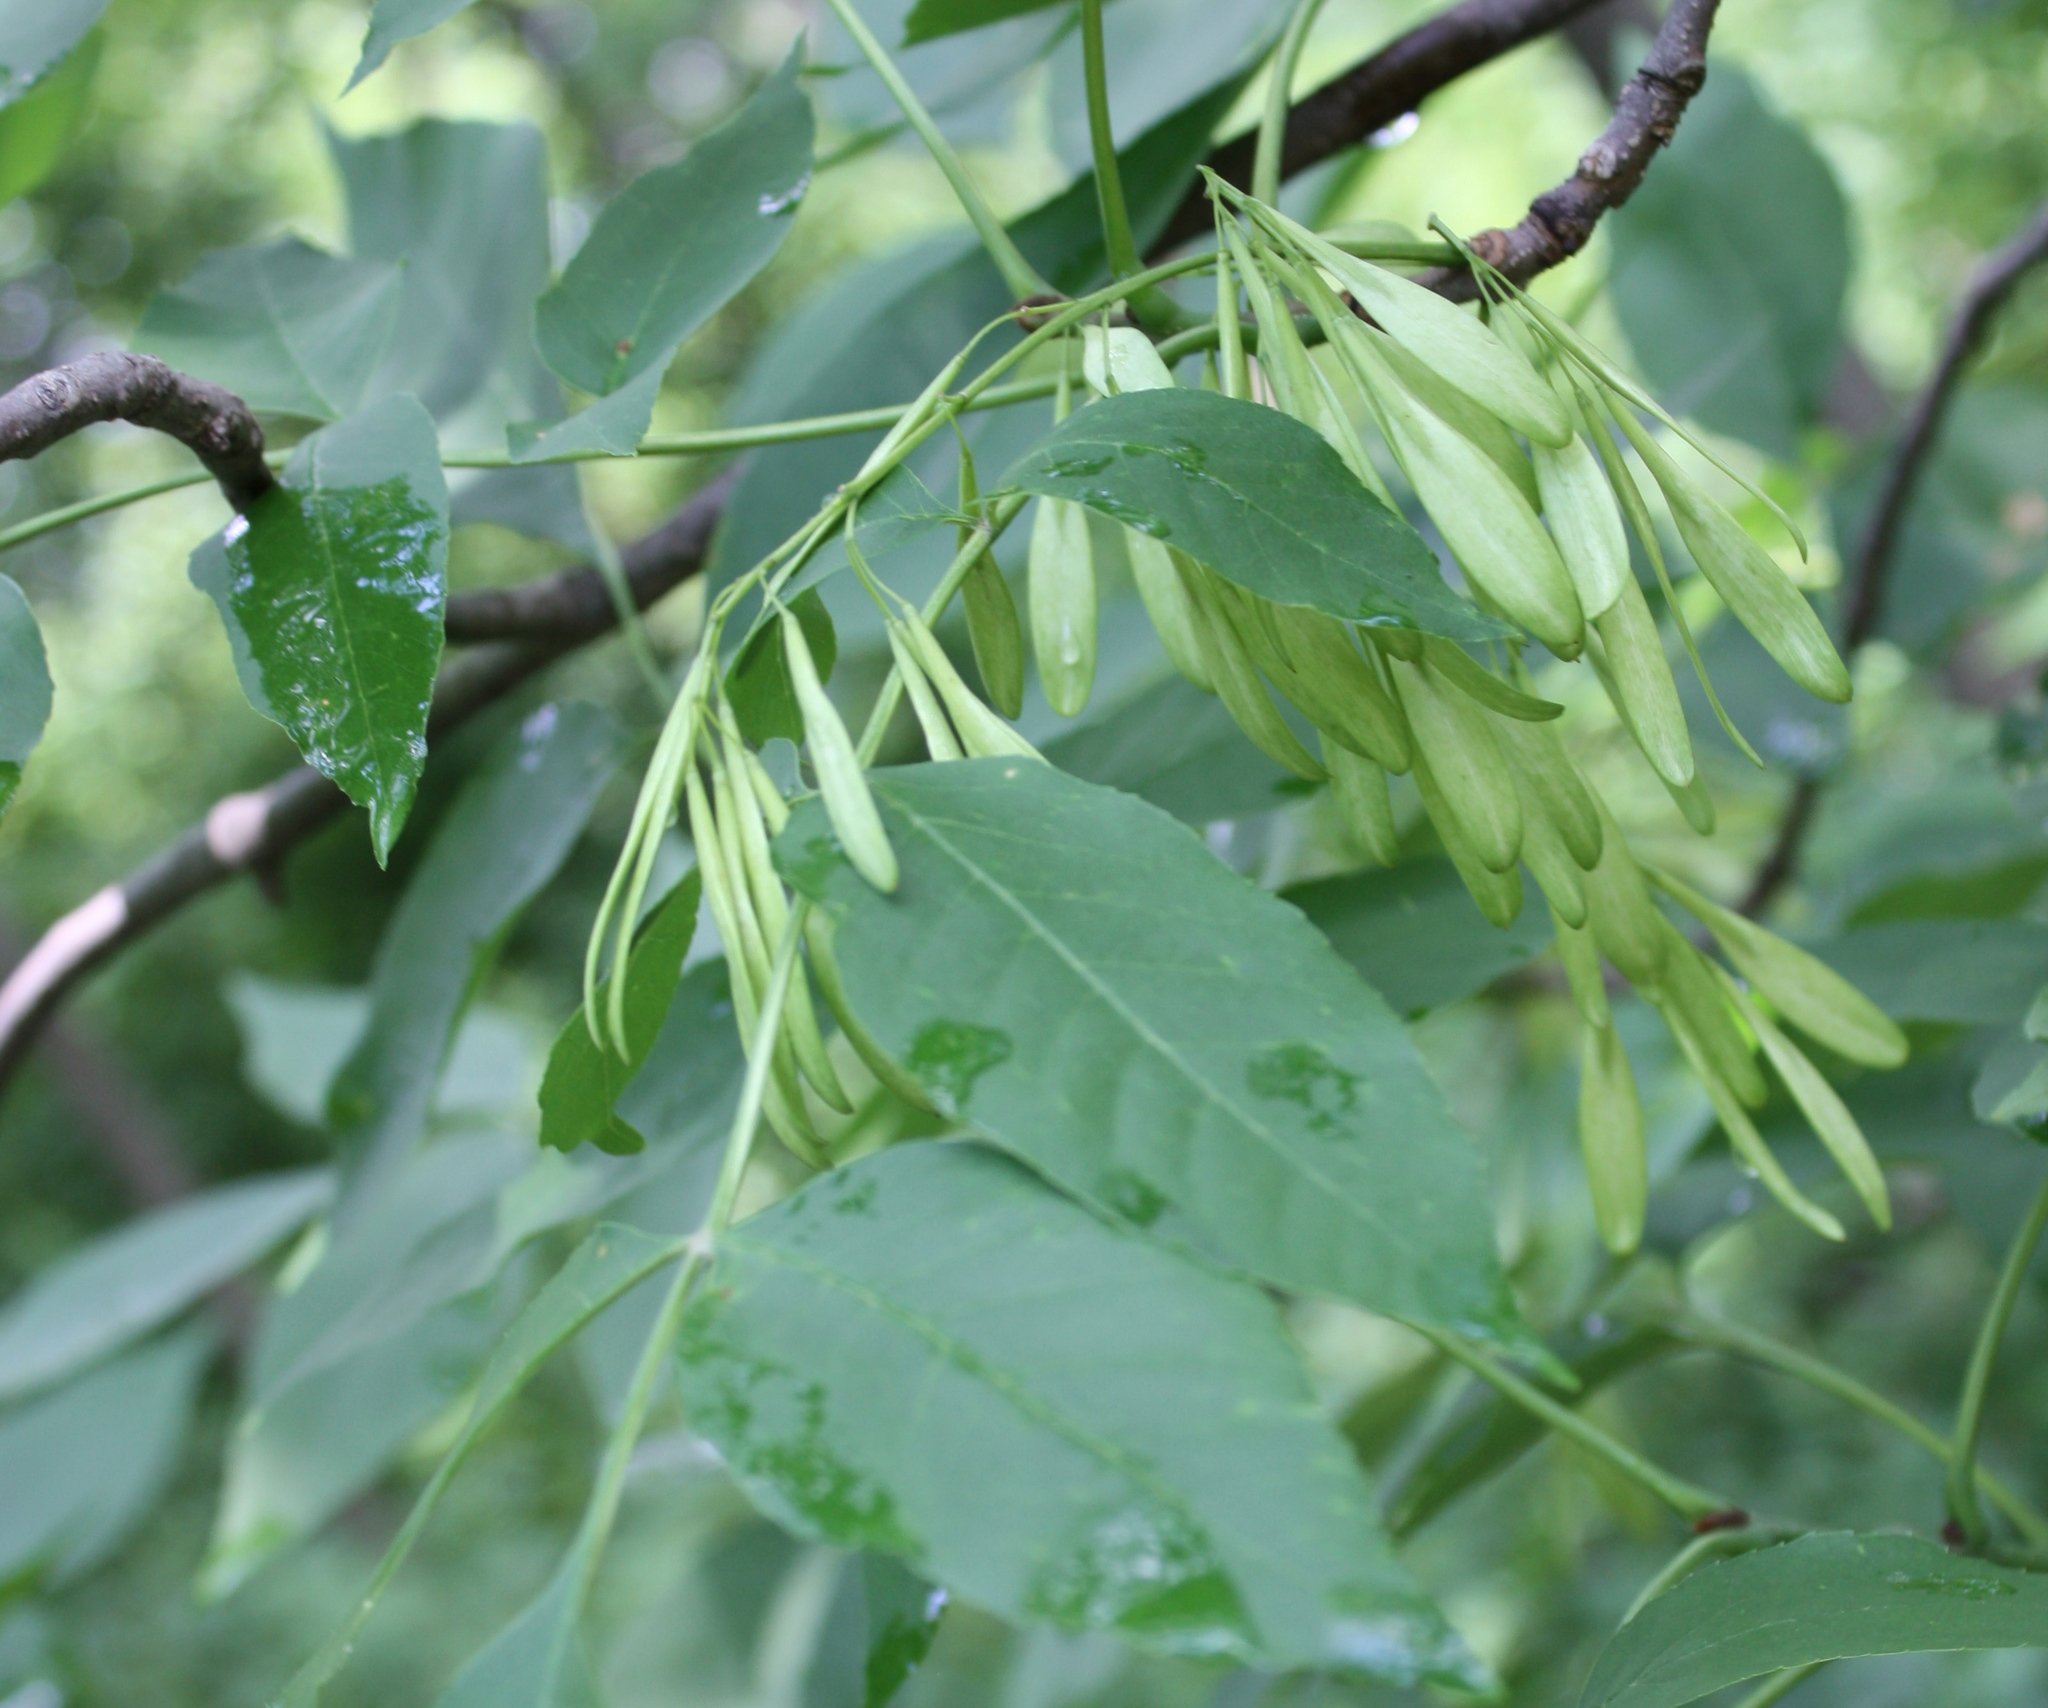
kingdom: Plantae
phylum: Tracheophyta
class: Magnoliopsida
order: Lamiales
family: Oleaceae
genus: Fraxinus
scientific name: Fraxinus pennsylvanica
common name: Green ash
